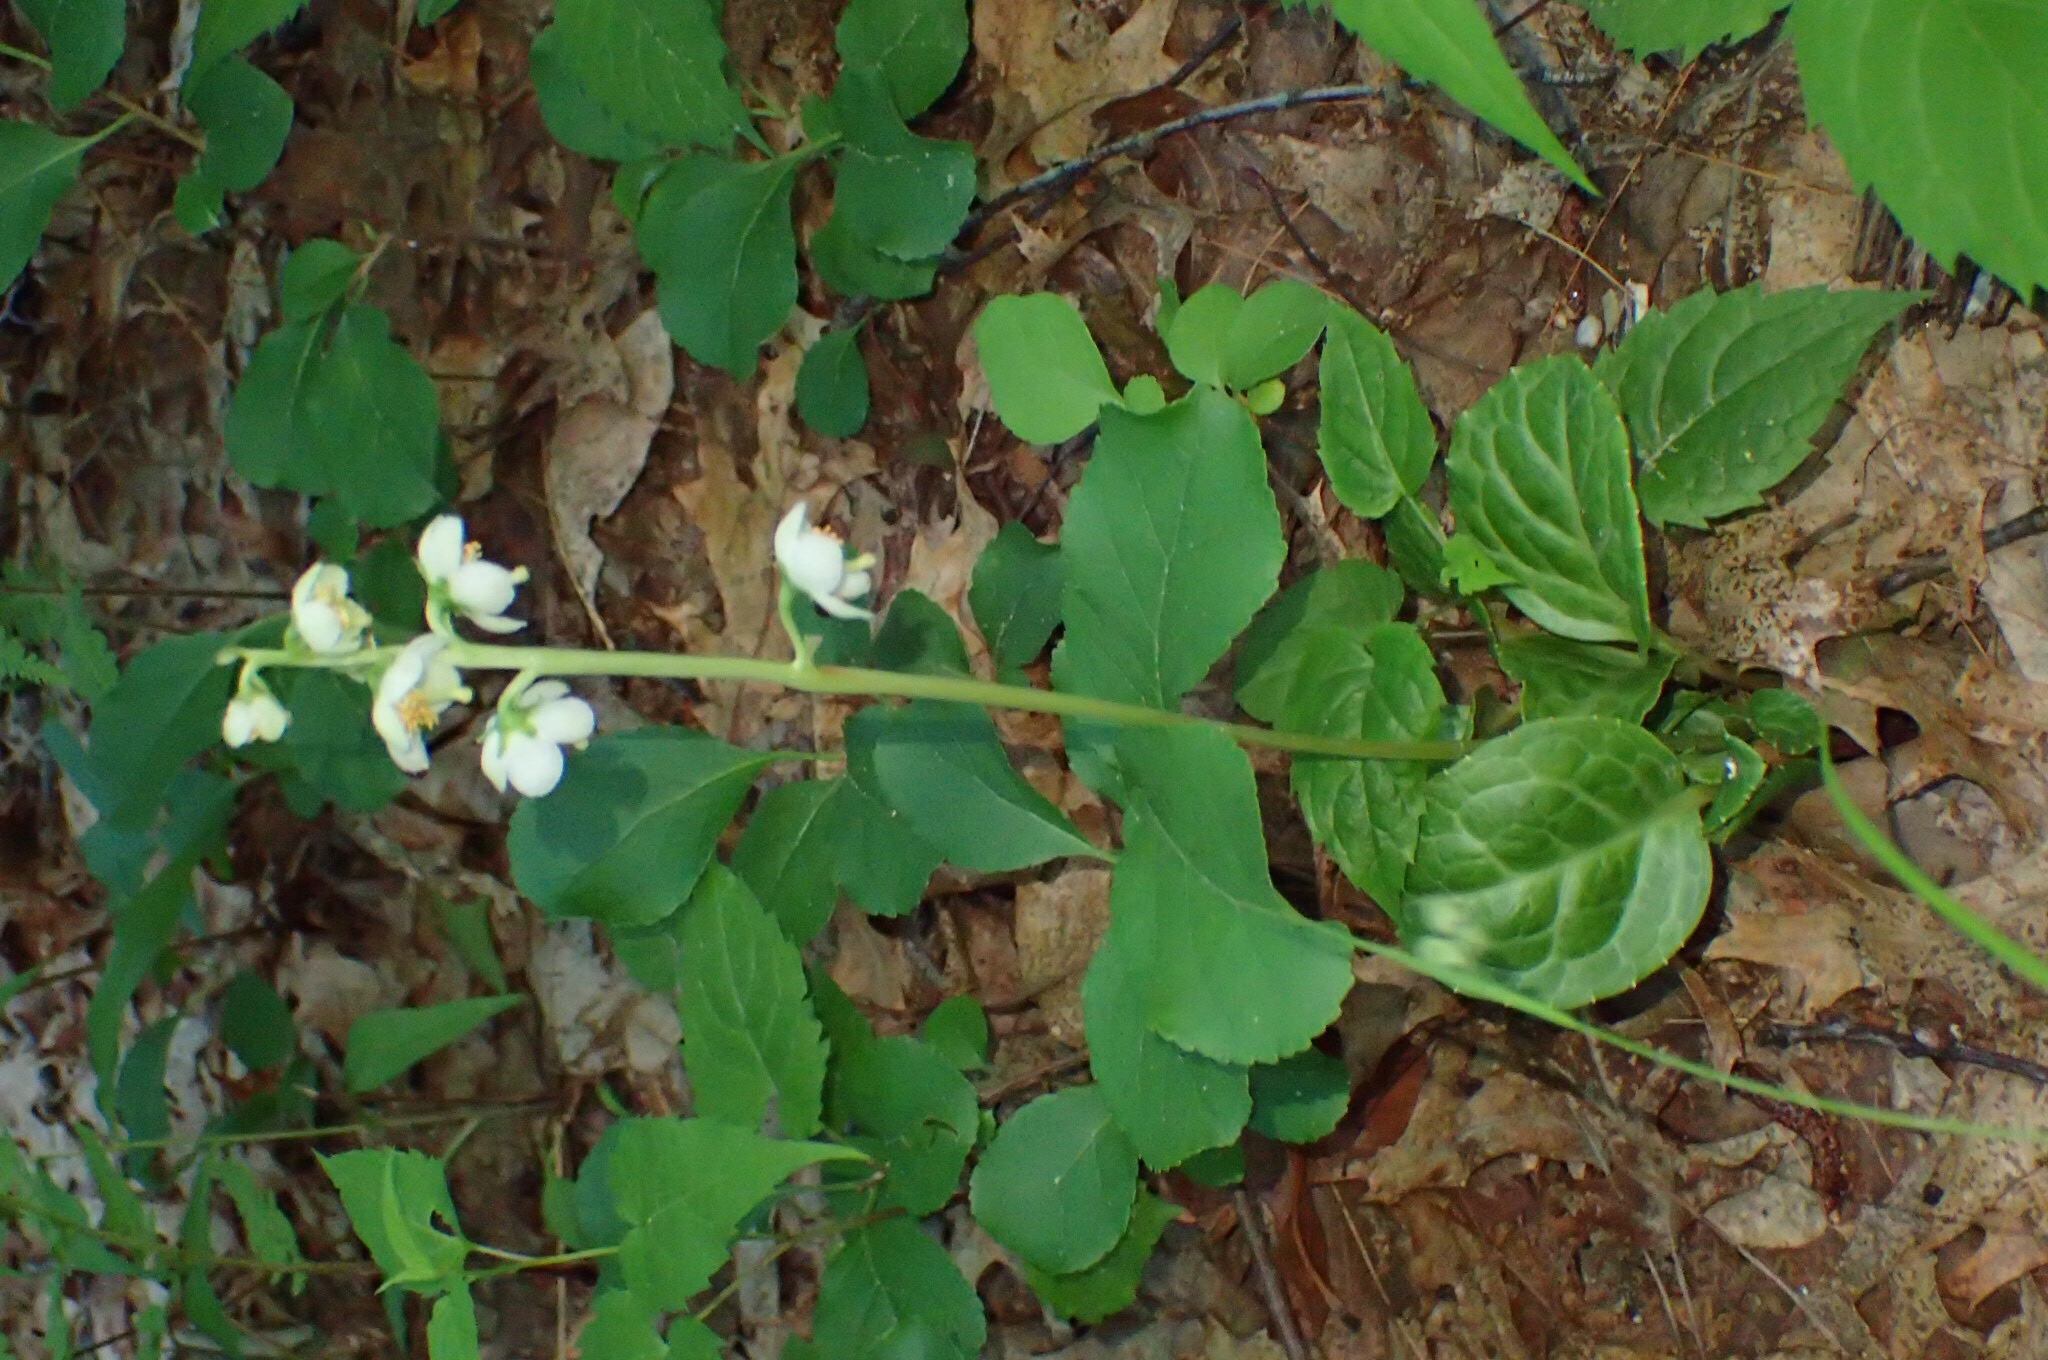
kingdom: Plantae
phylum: Tracheophyta
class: Magnoliopsida
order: Ericales
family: Ericaceae
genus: Pyrola
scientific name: Pyrola americana
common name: American wintergreen
